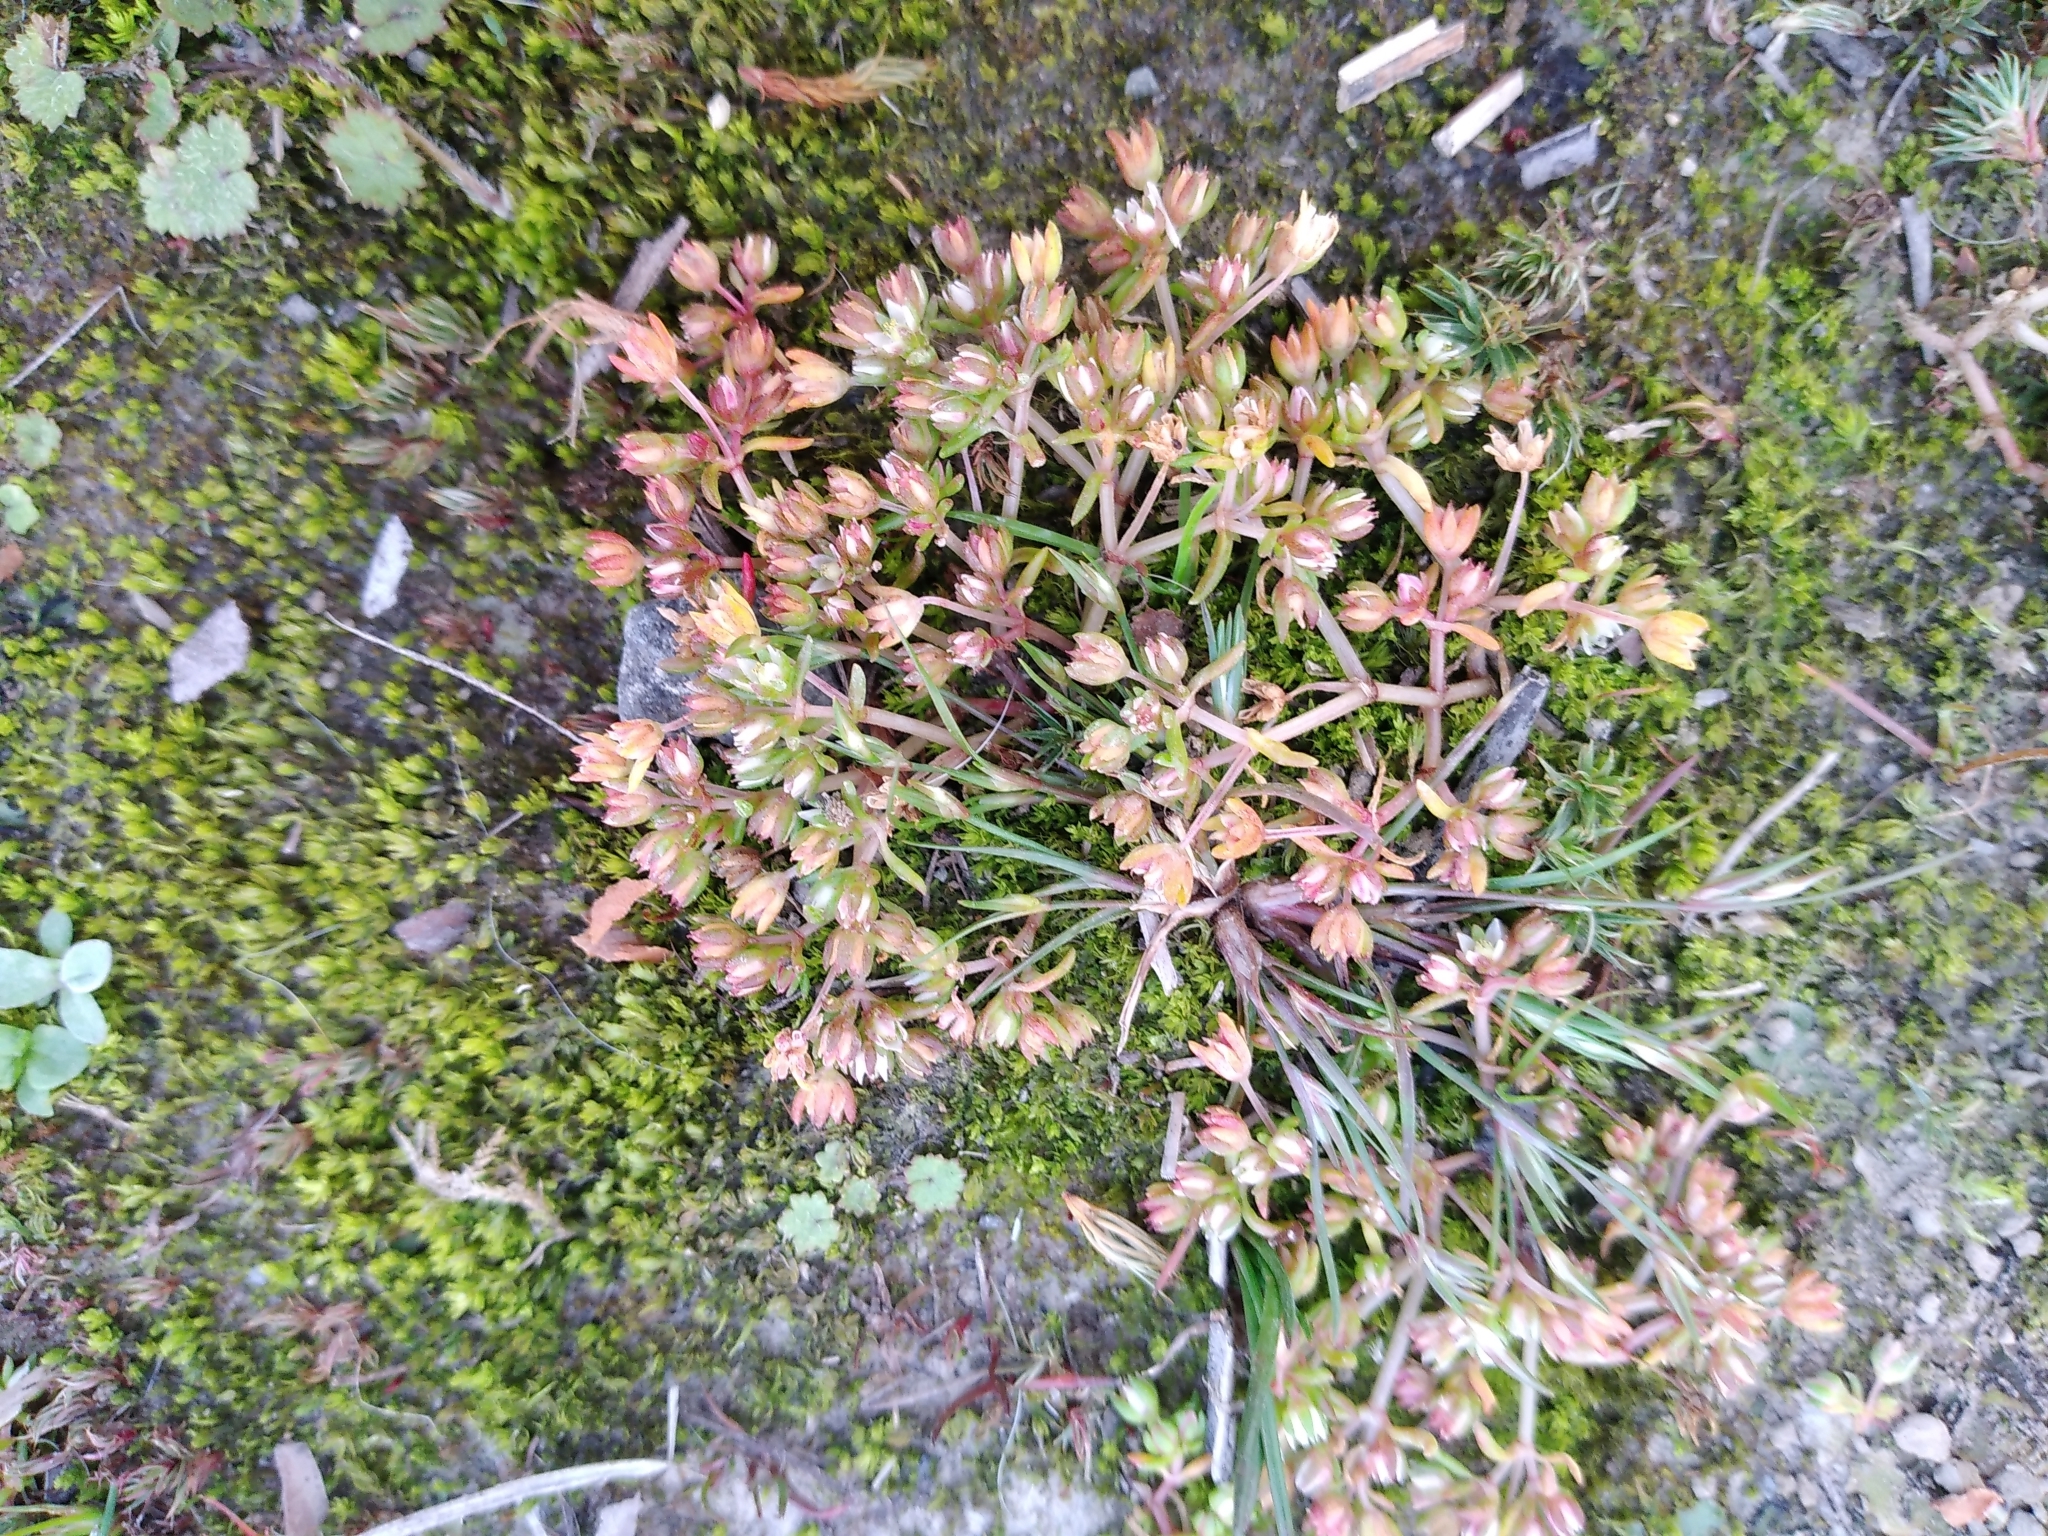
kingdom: Plantae
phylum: Tracheophyta
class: Magnoliopsida
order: Caryophyllales
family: Caryophyllaceae
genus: Polycarpon
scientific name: Polycarpon tetraphyllum
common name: Four-leaved all-seed
